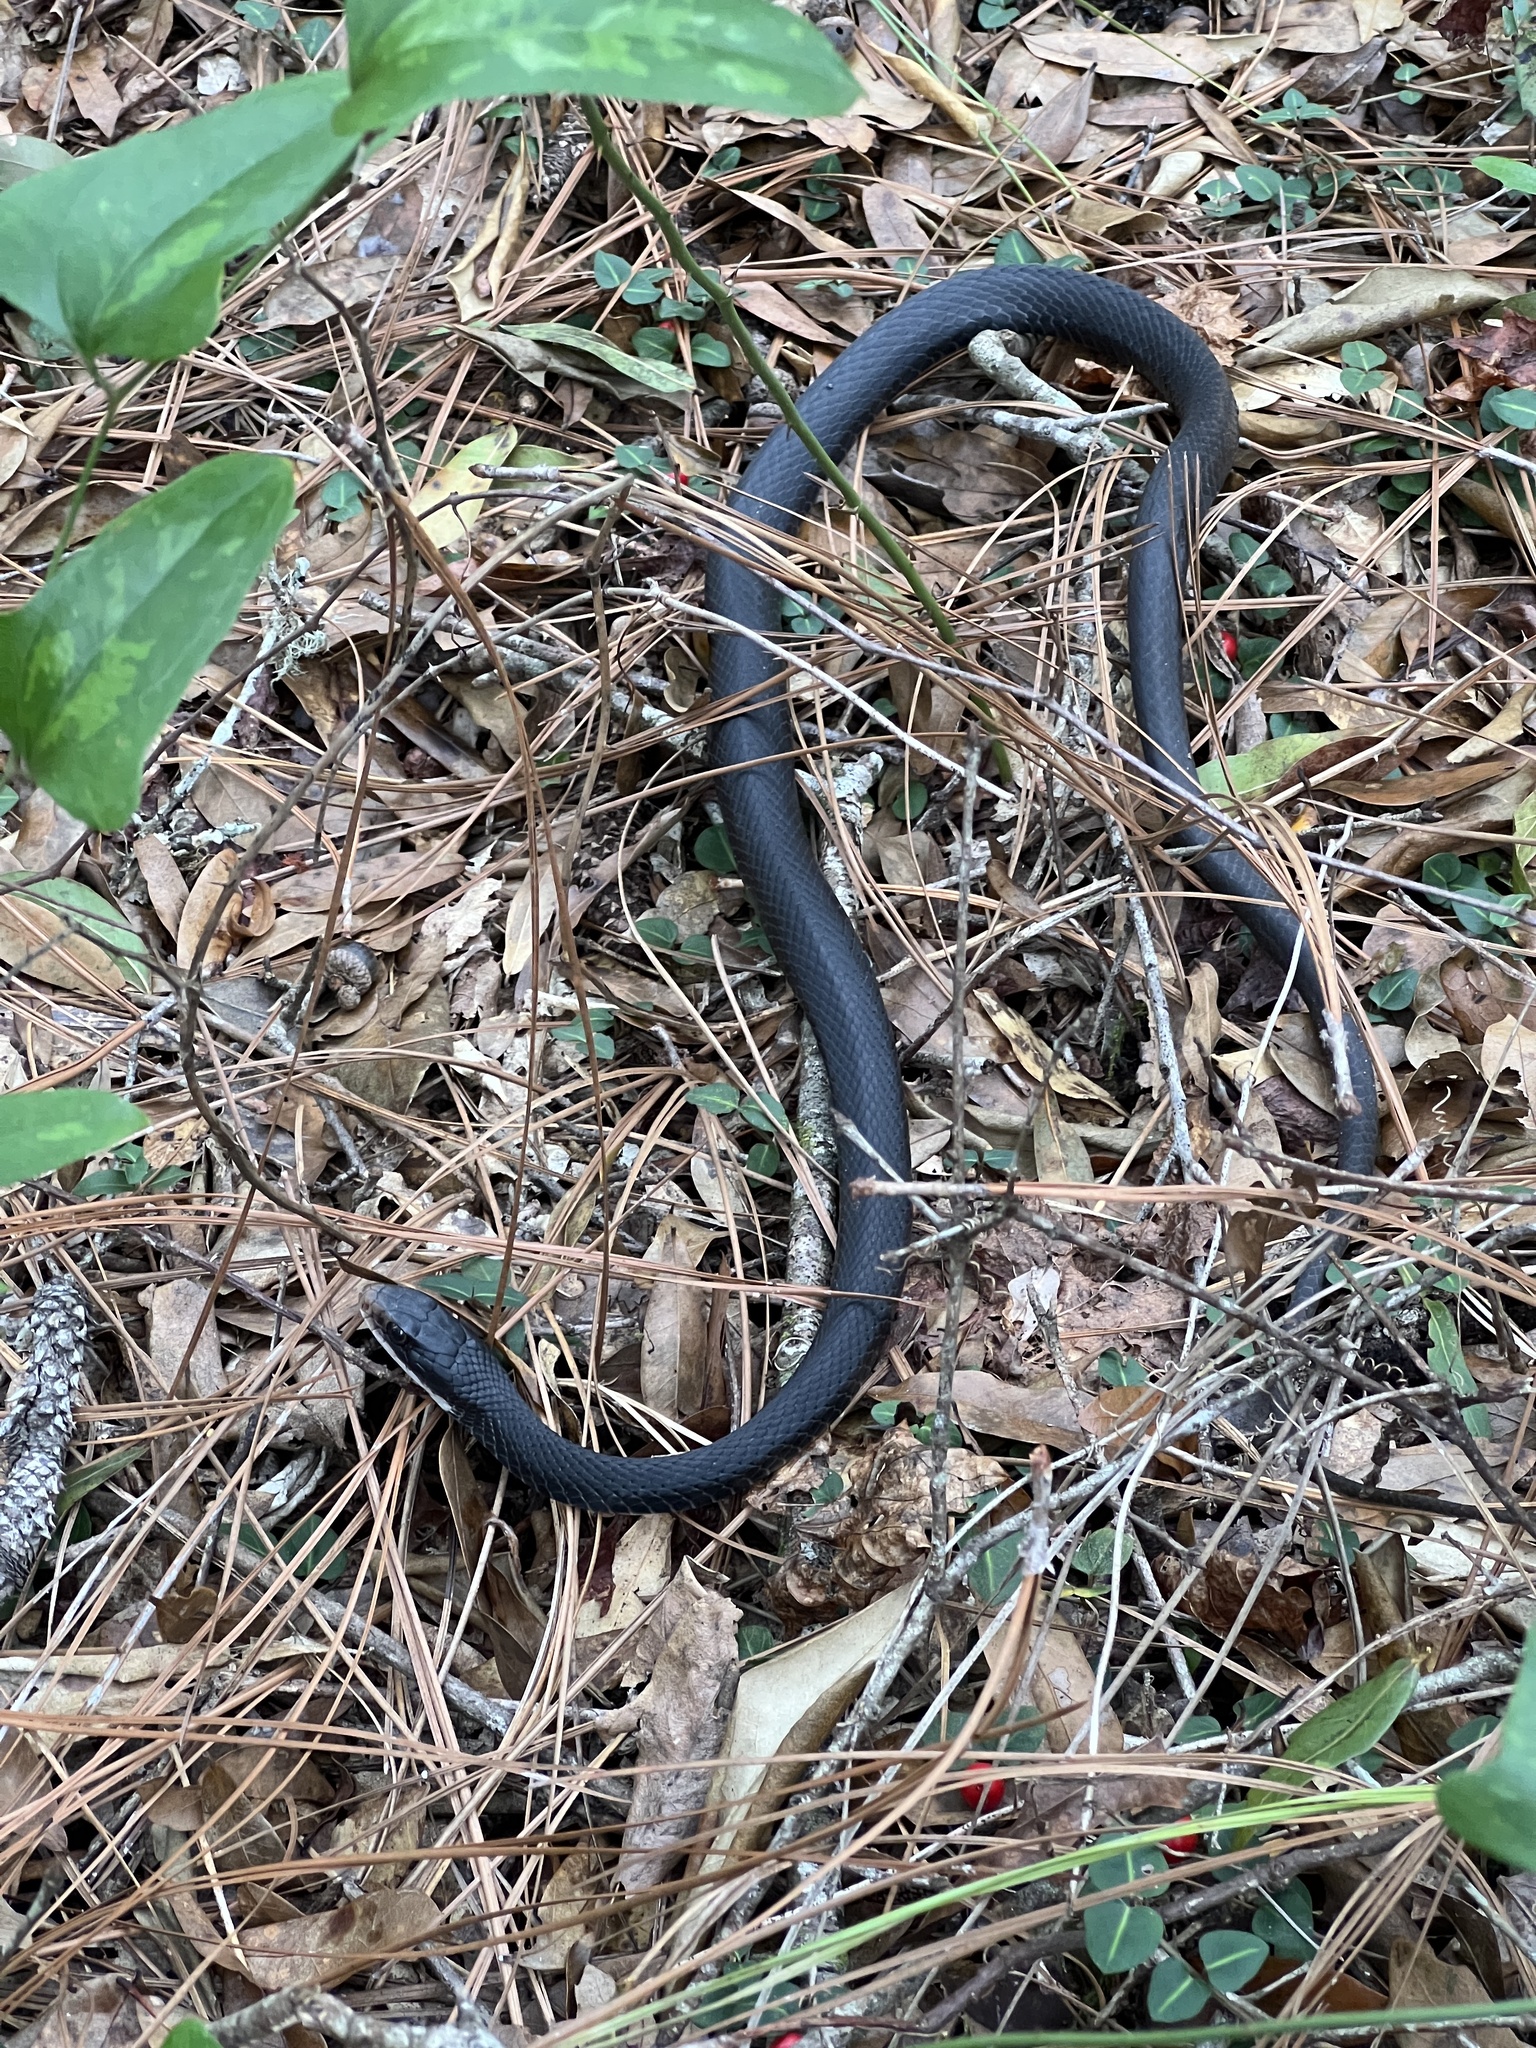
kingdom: Animalia
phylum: Chordata
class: Squamata
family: Colubridae
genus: Coluber
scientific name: Coluber constrictor
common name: Eastern racer
